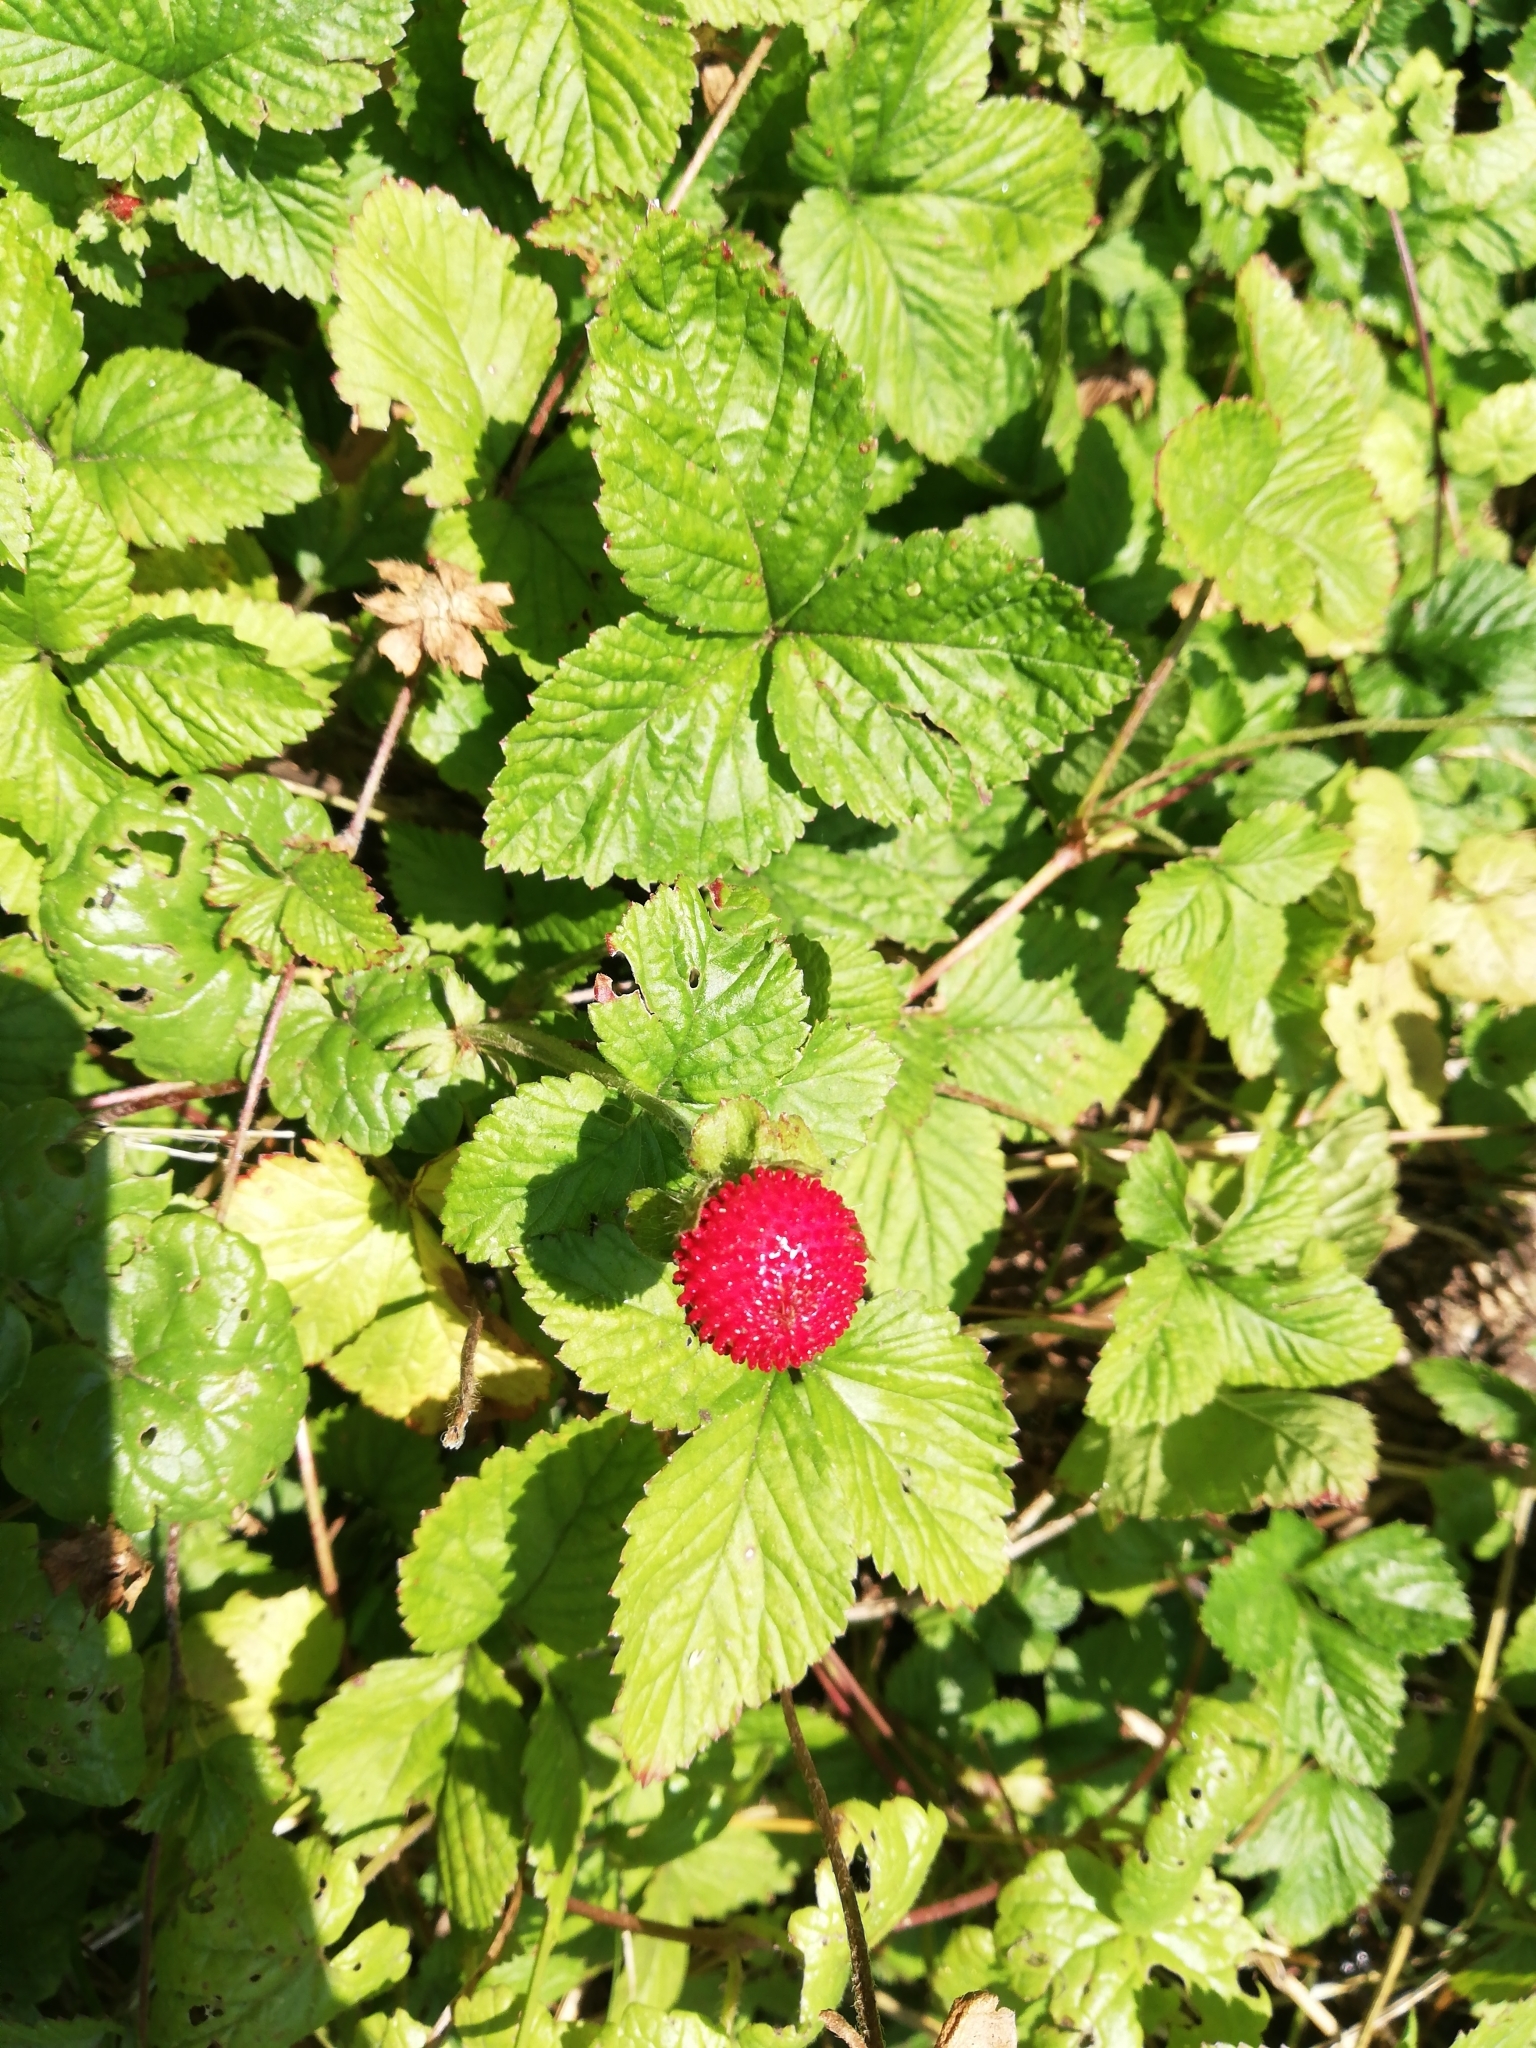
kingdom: Plantae
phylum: Tracheophyta
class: Magnoliopsida
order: Rosales
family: Rosaceae
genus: Potentilla
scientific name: Potentilla indica
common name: Yellow-flowered strawberry
